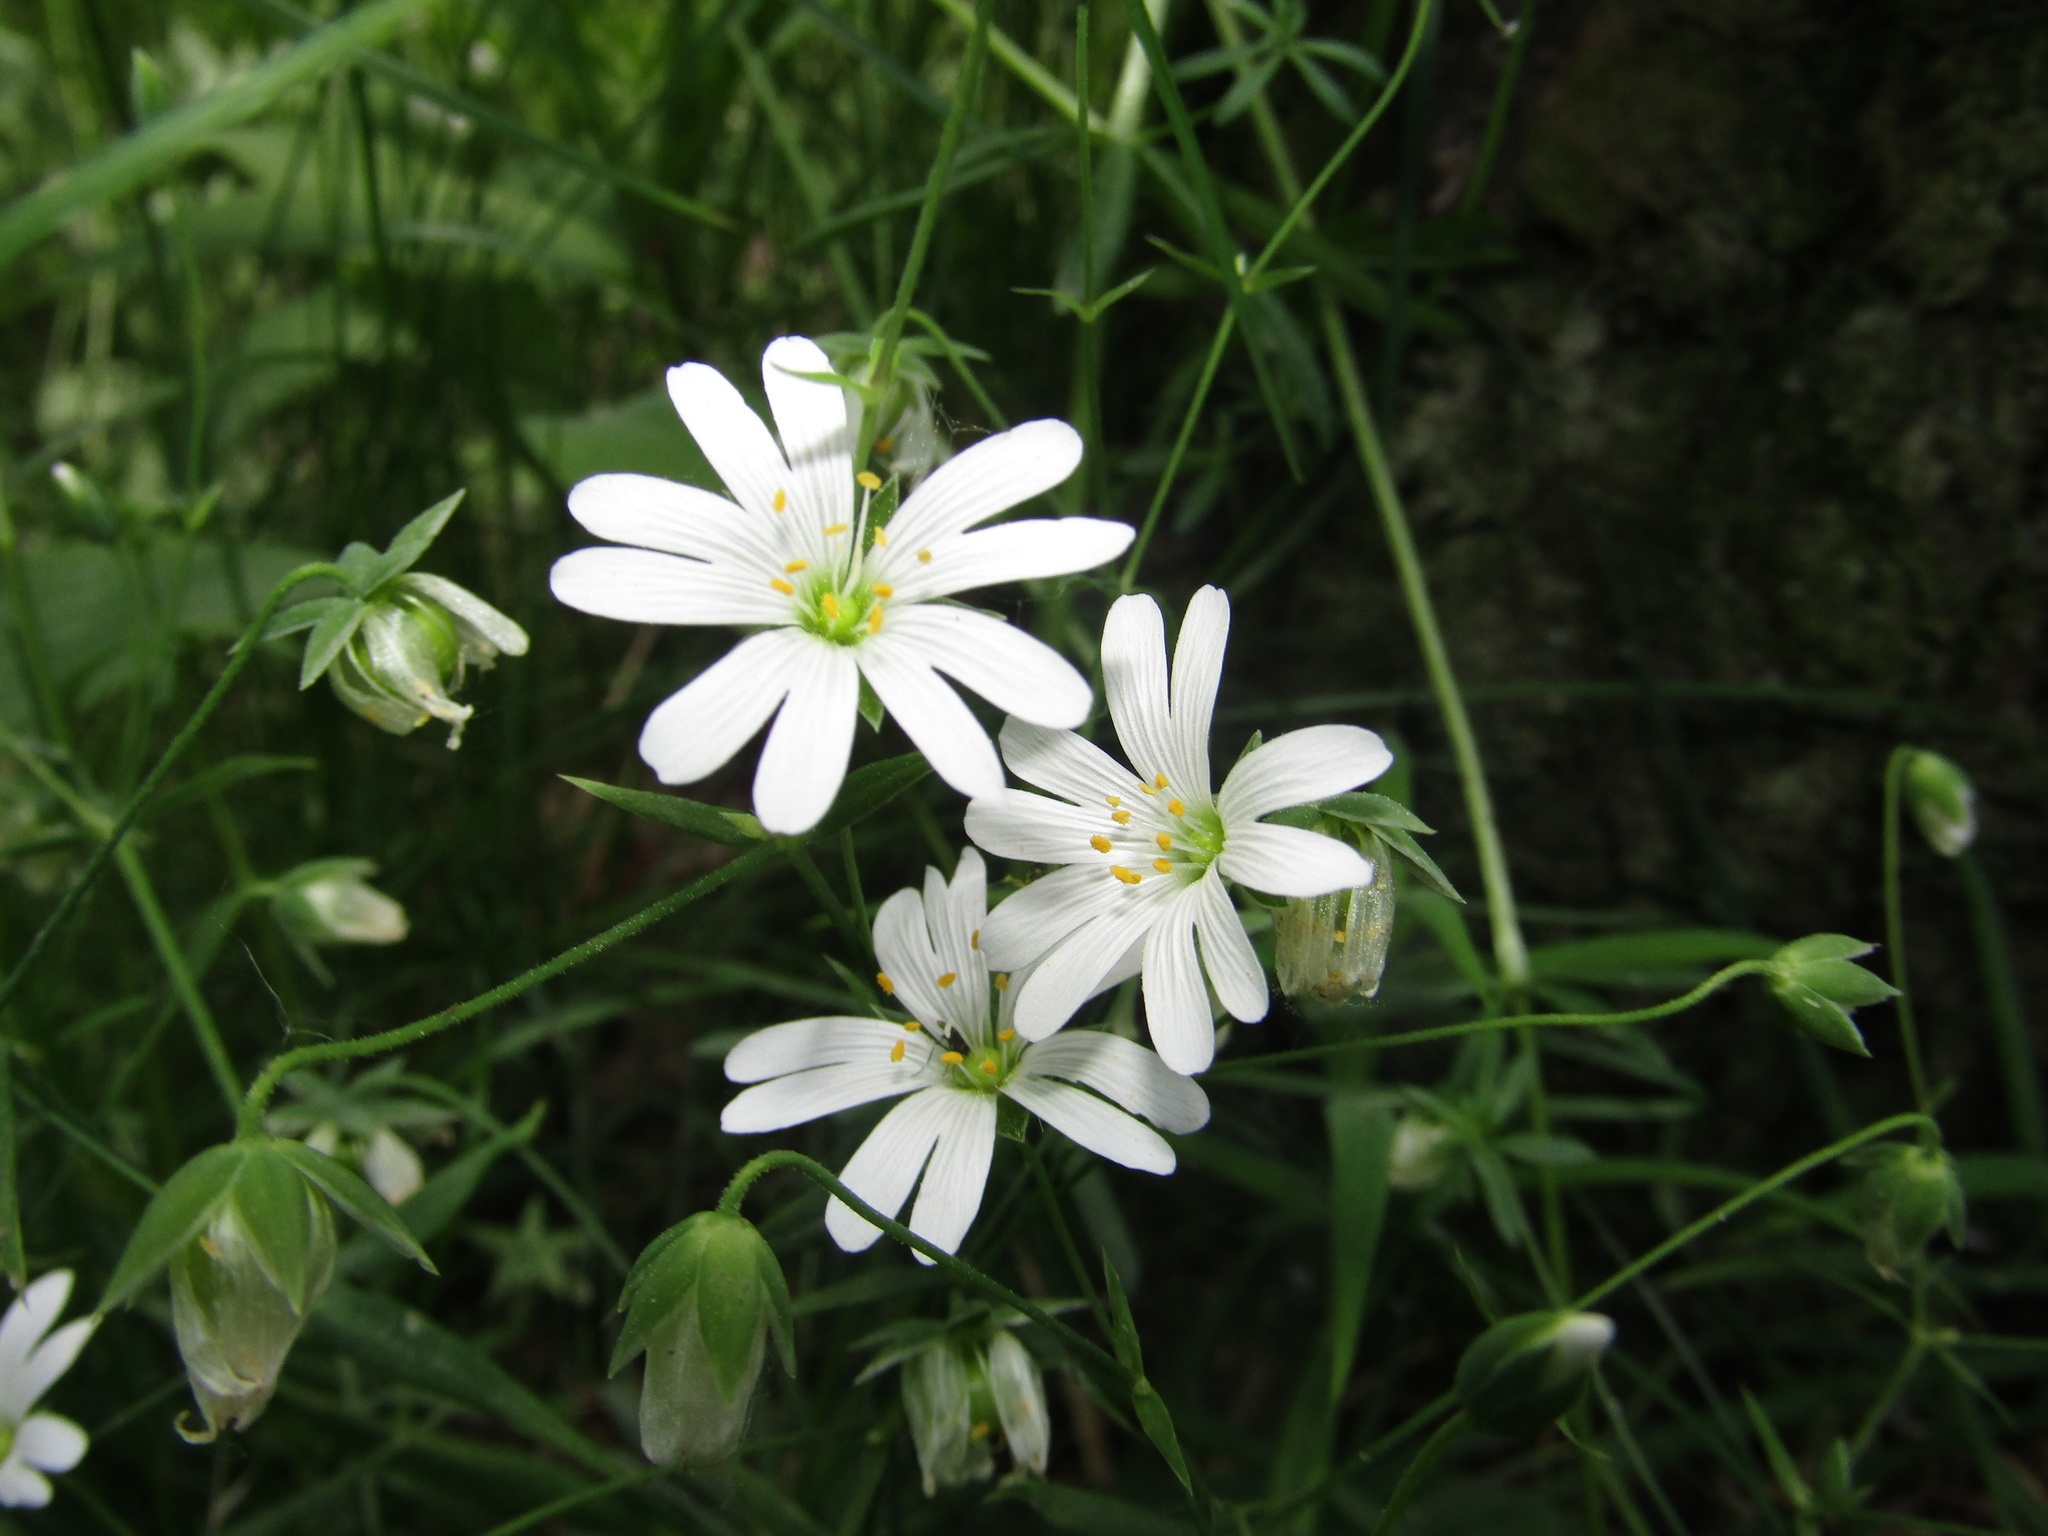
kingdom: Plantae
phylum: Tracheophyta
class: Magnoliopsida
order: Caryophyllales
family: Caryophyllaceae
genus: Rabelera
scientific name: Rabelera holostea
